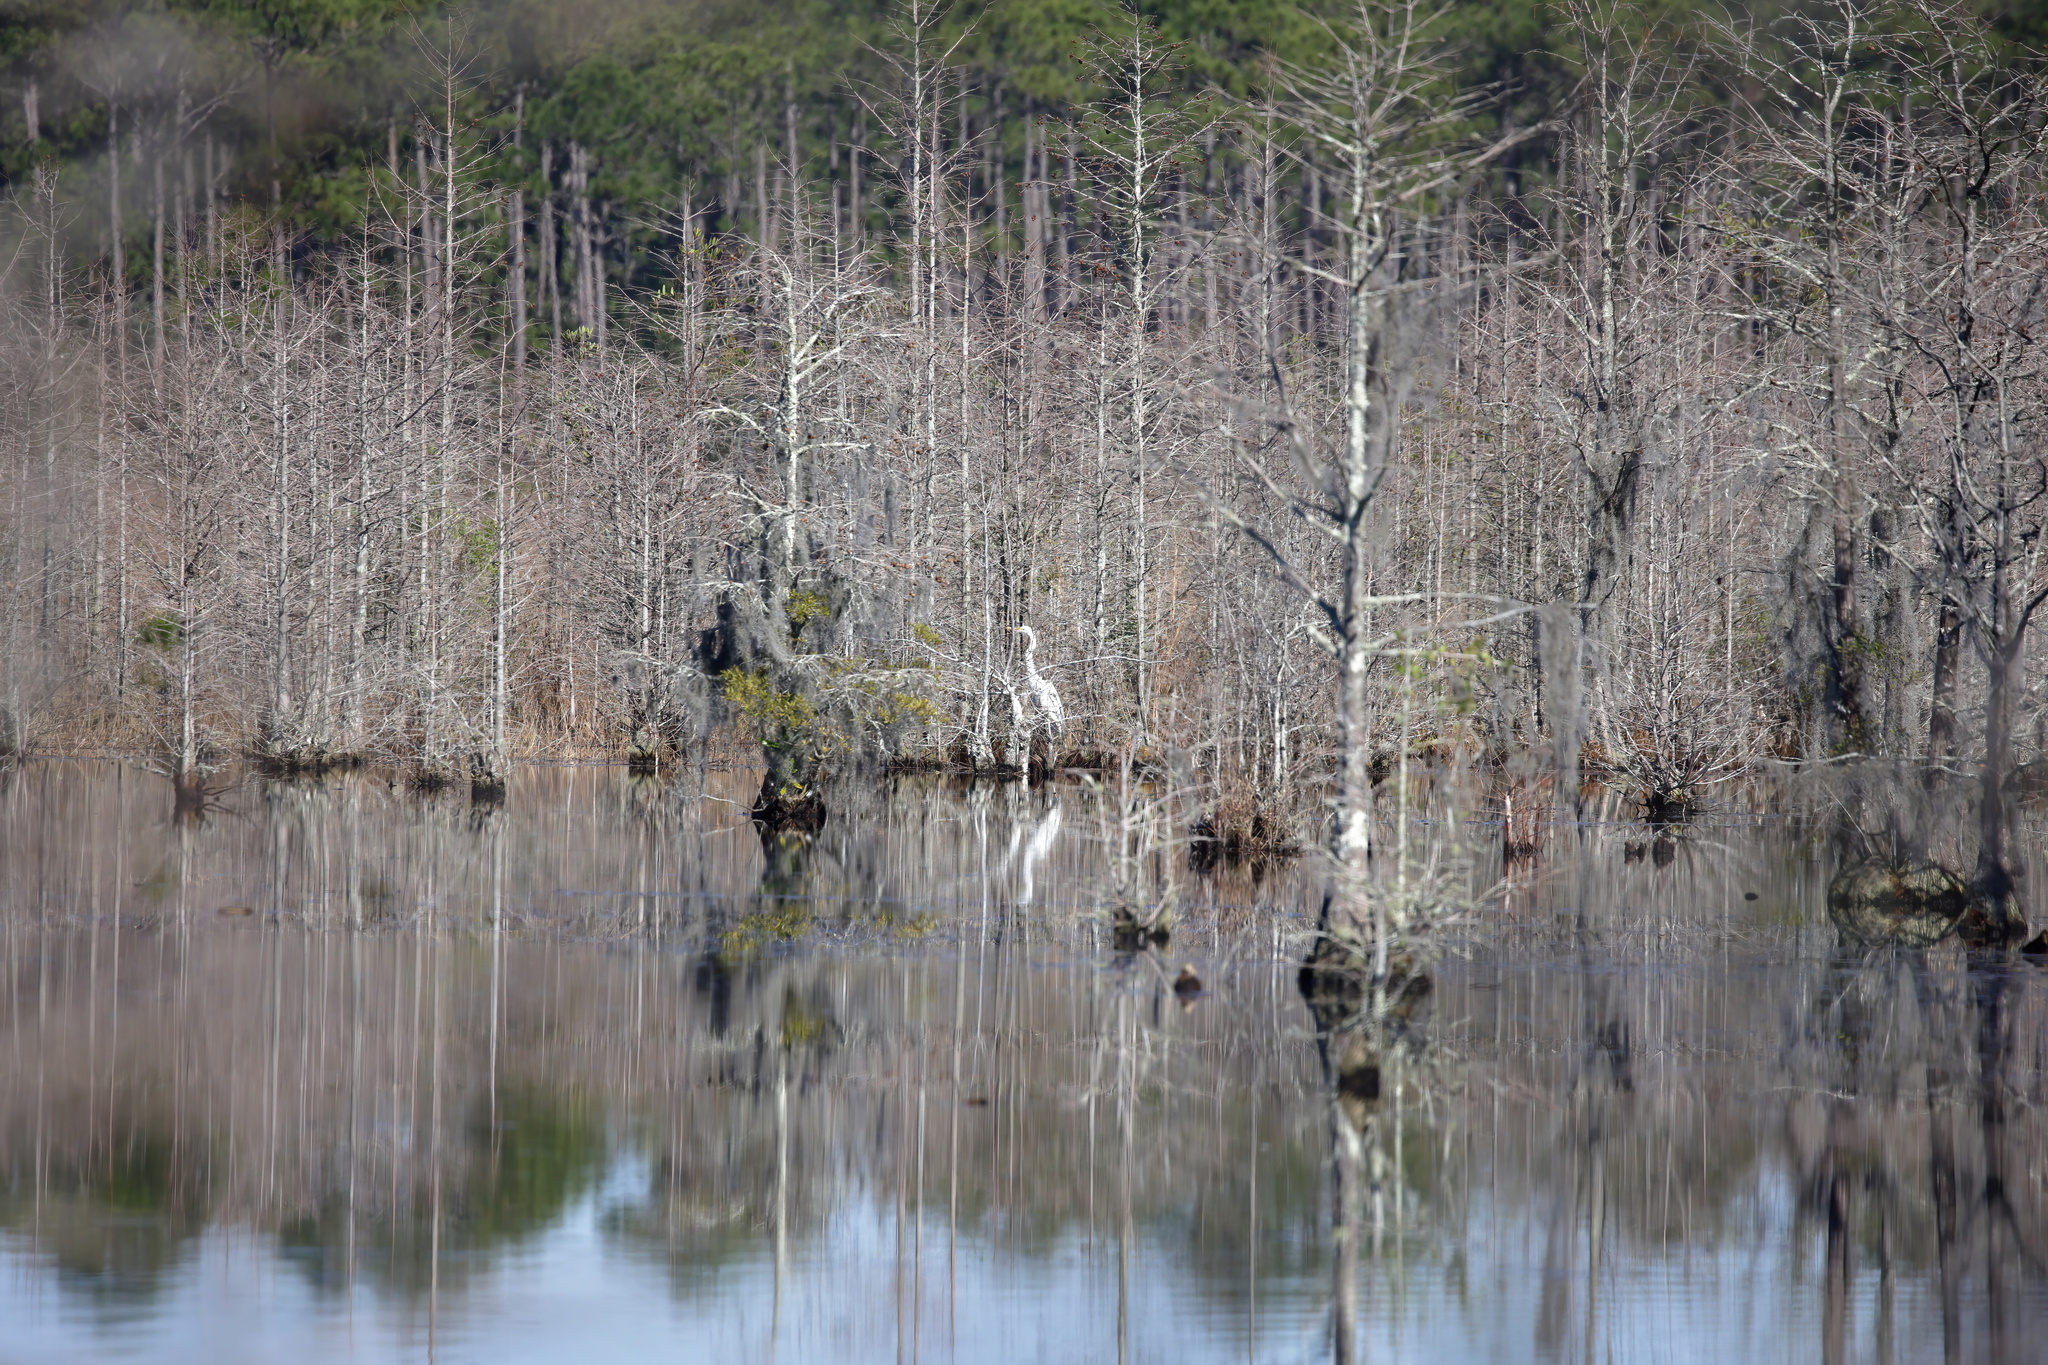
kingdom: Animalia
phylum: Chordata
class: Aves
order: Pelecaniformes
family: Ardeidae
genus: Ardea
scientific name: Ardea alba
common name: Great egret
